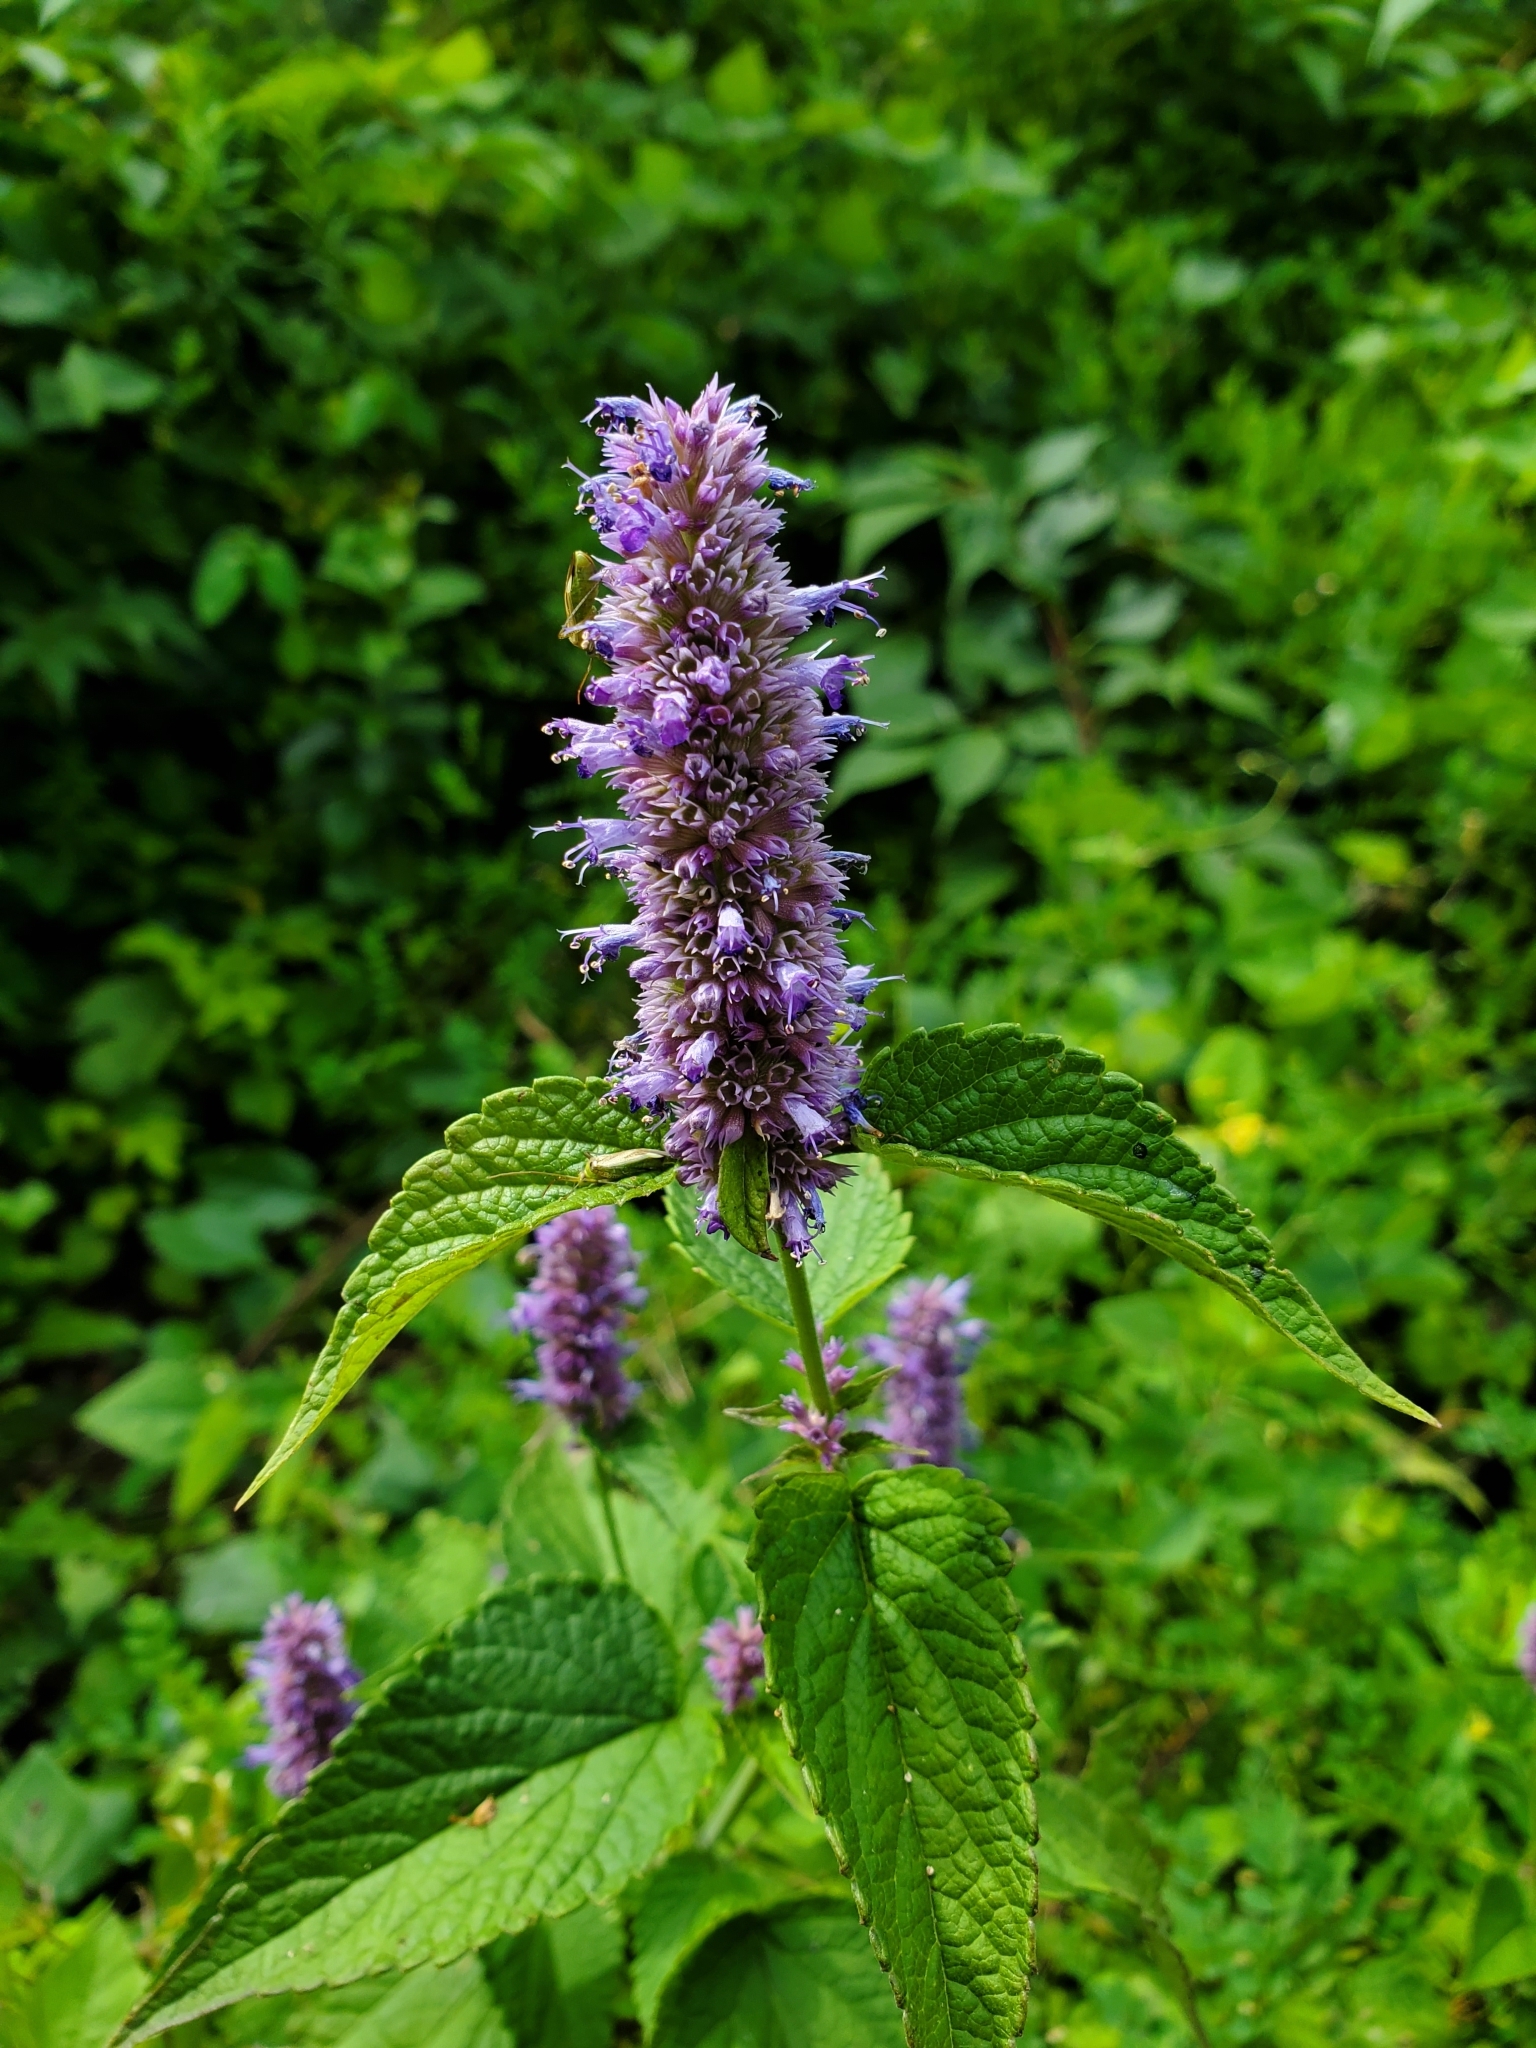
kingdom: Plantae
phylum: Tracheophyta
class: Magnoliopsida
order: Lamiales
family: Lamiaceae
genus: Agastache
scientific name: Agastache foeniculum
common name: Anise hyssop
